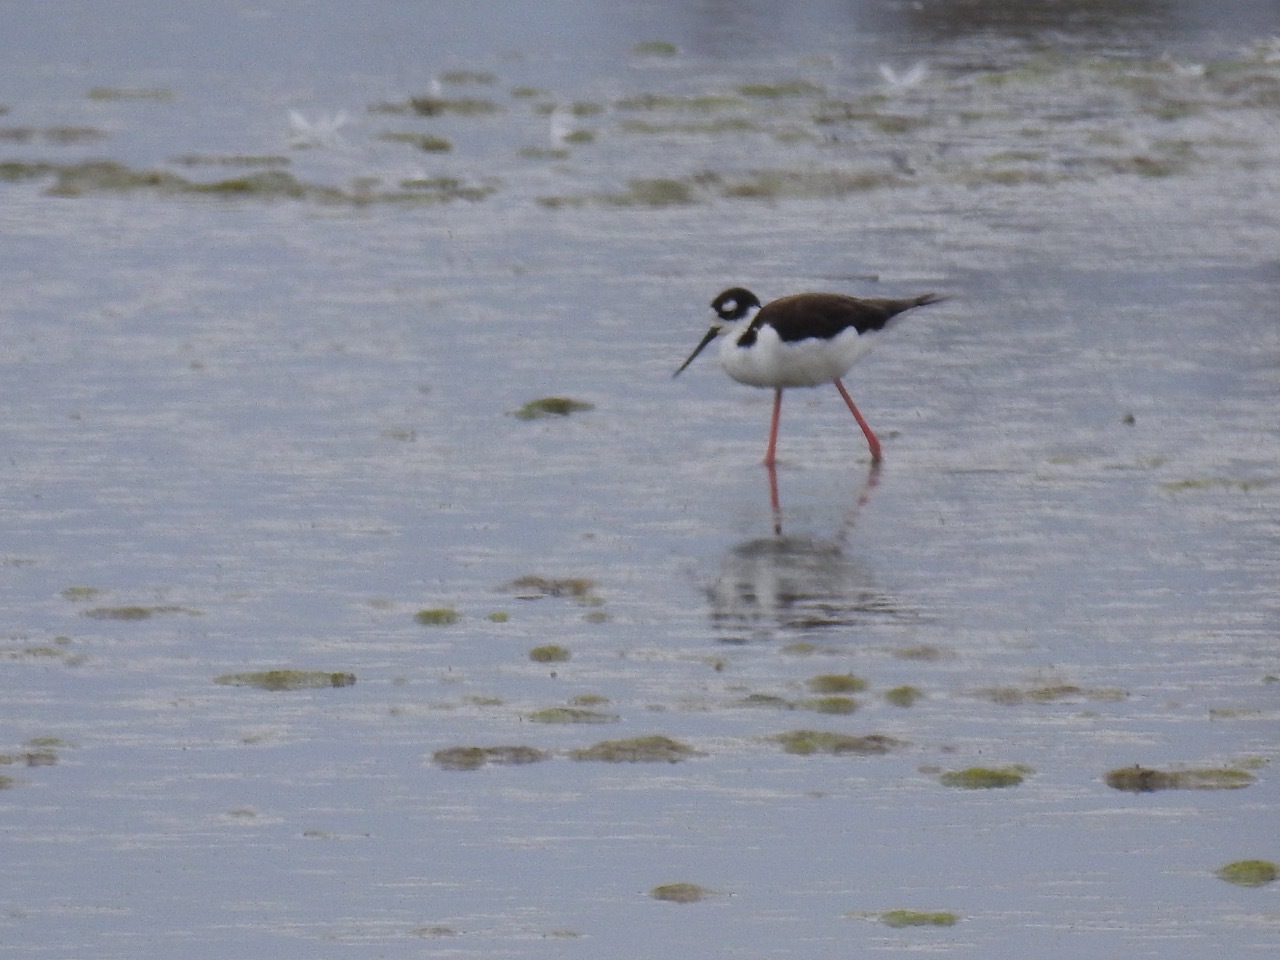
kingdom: Animalia
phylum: Chordata
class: Aves
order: Charadriiformes
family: Recurvirostridae
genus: Himantopus
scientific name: Himantopus mexicanus
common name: Black-necked stilt
